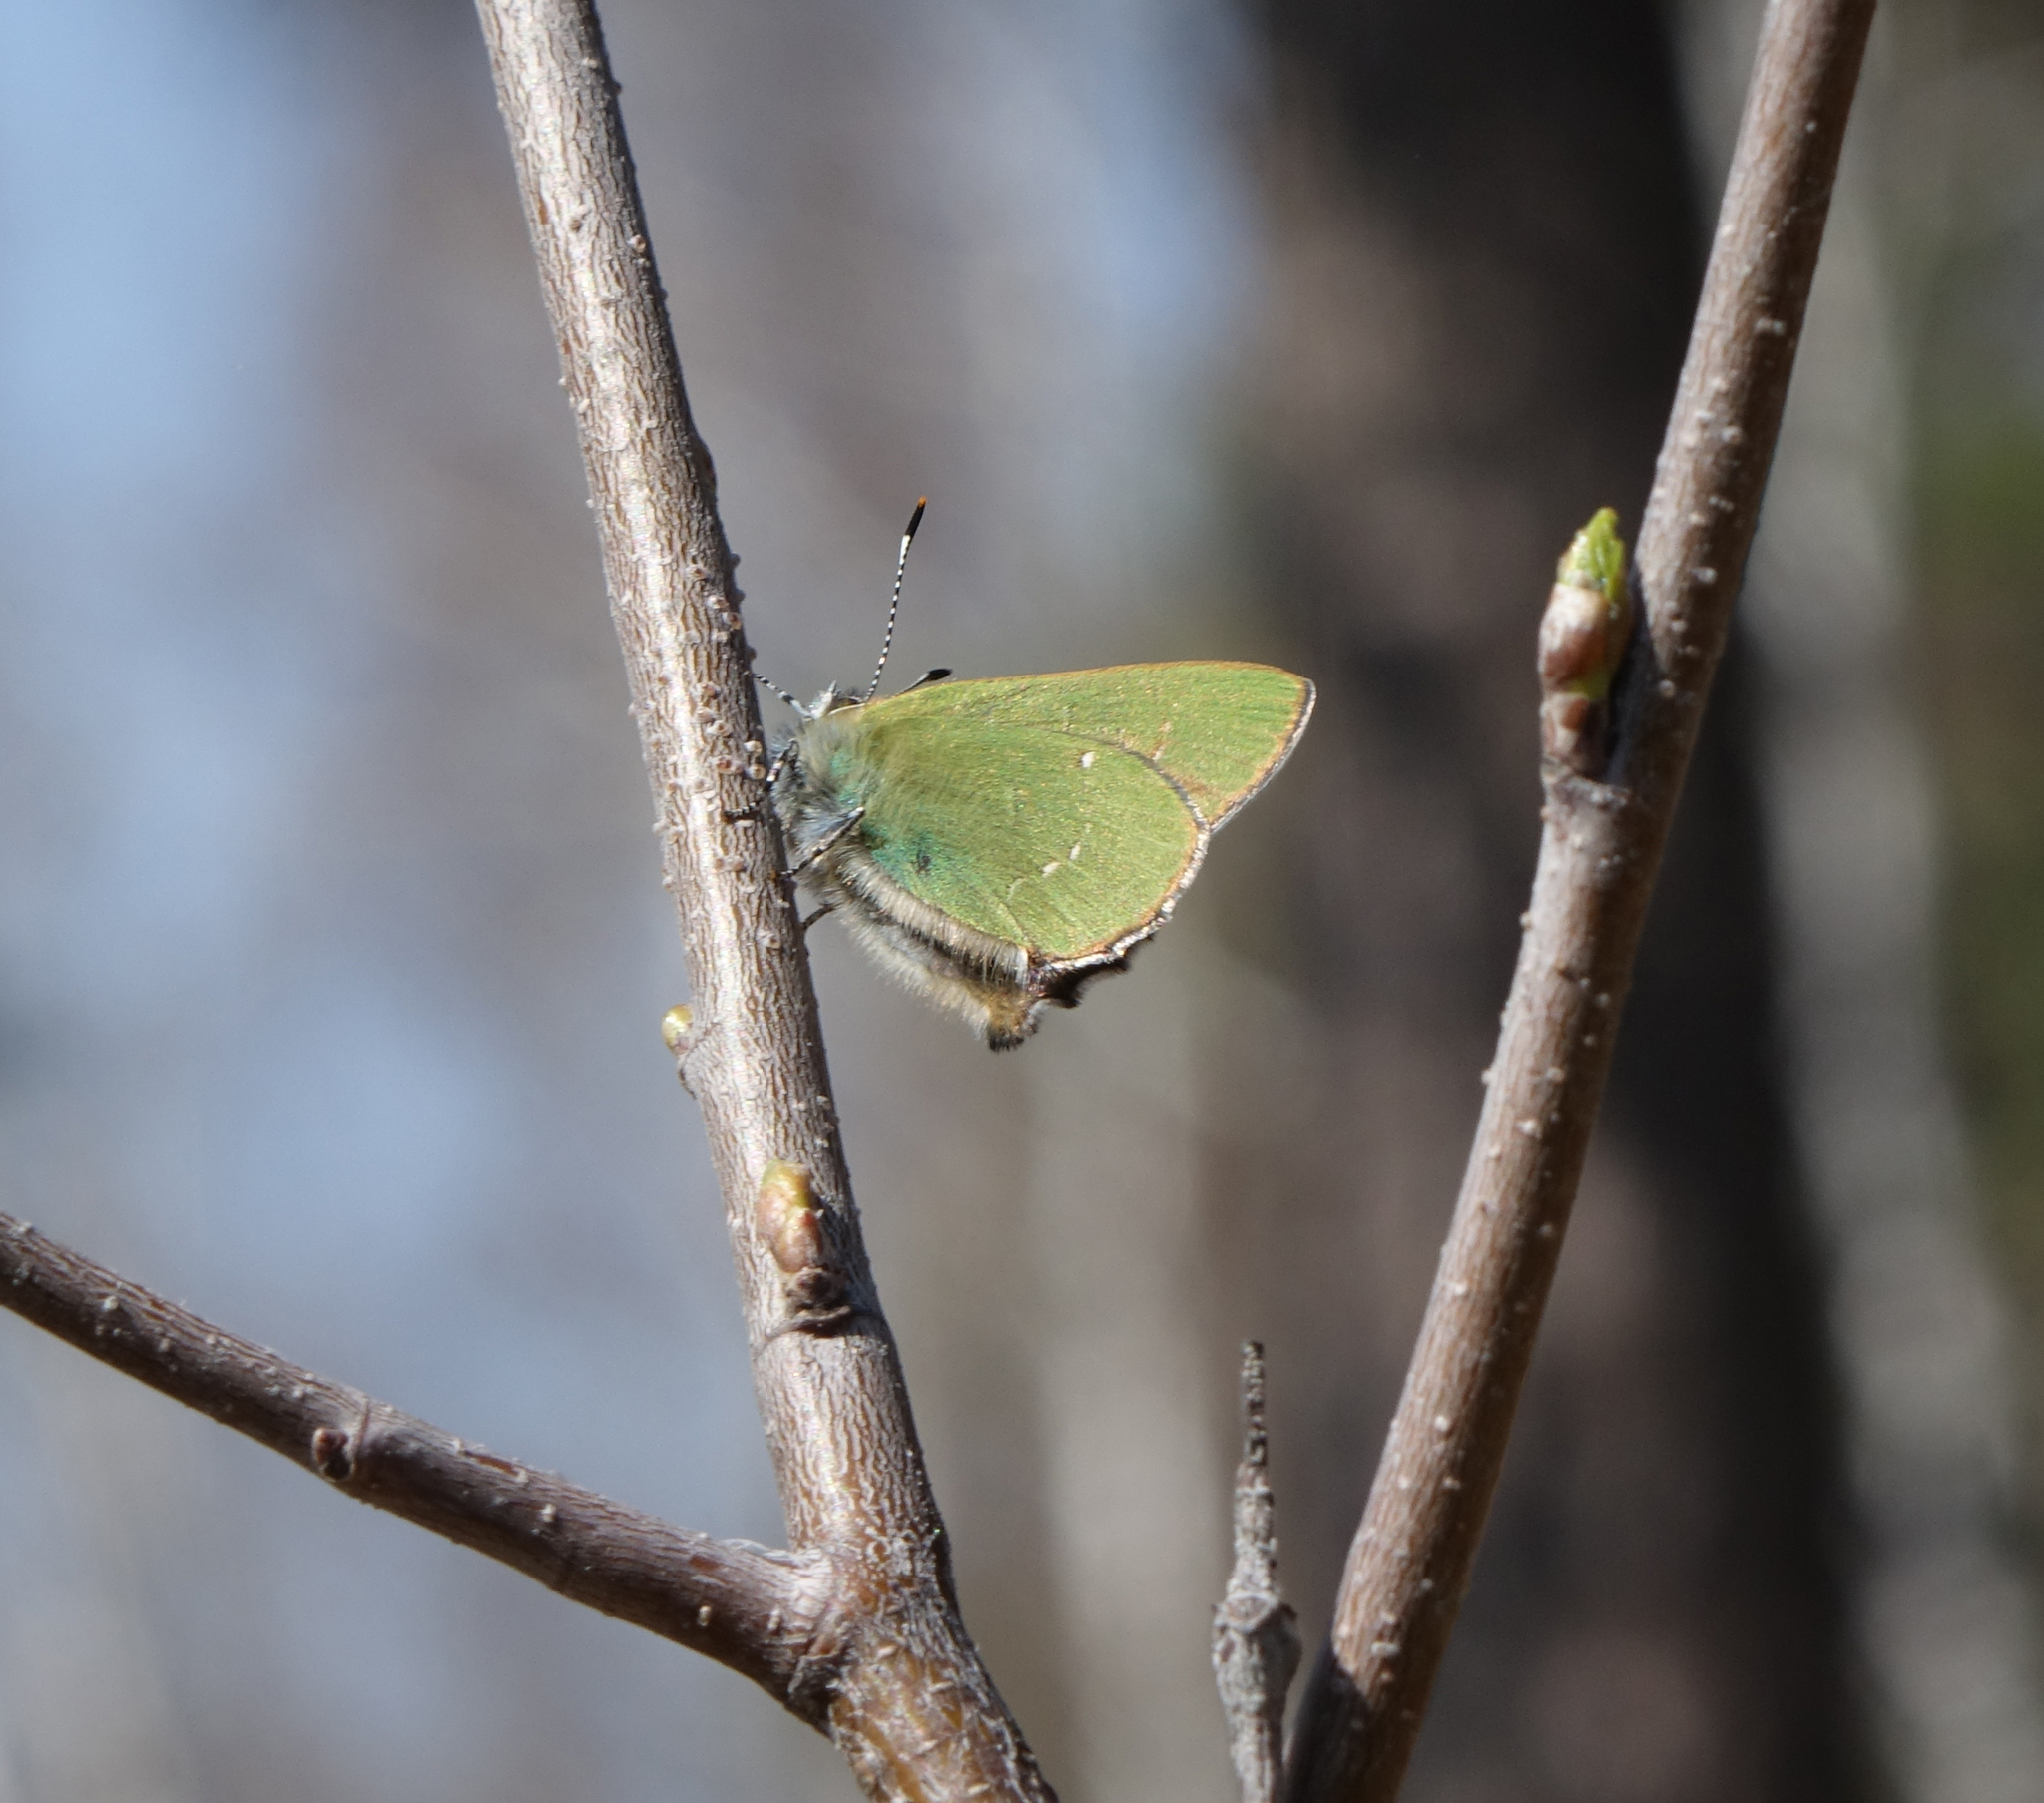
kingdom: Animalia
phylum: Arthropoda
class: Insecta
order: Lepidoptera
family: Lycaenidae
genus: Callophrys
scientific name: Callophrys rubi
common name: Green hairstreak
